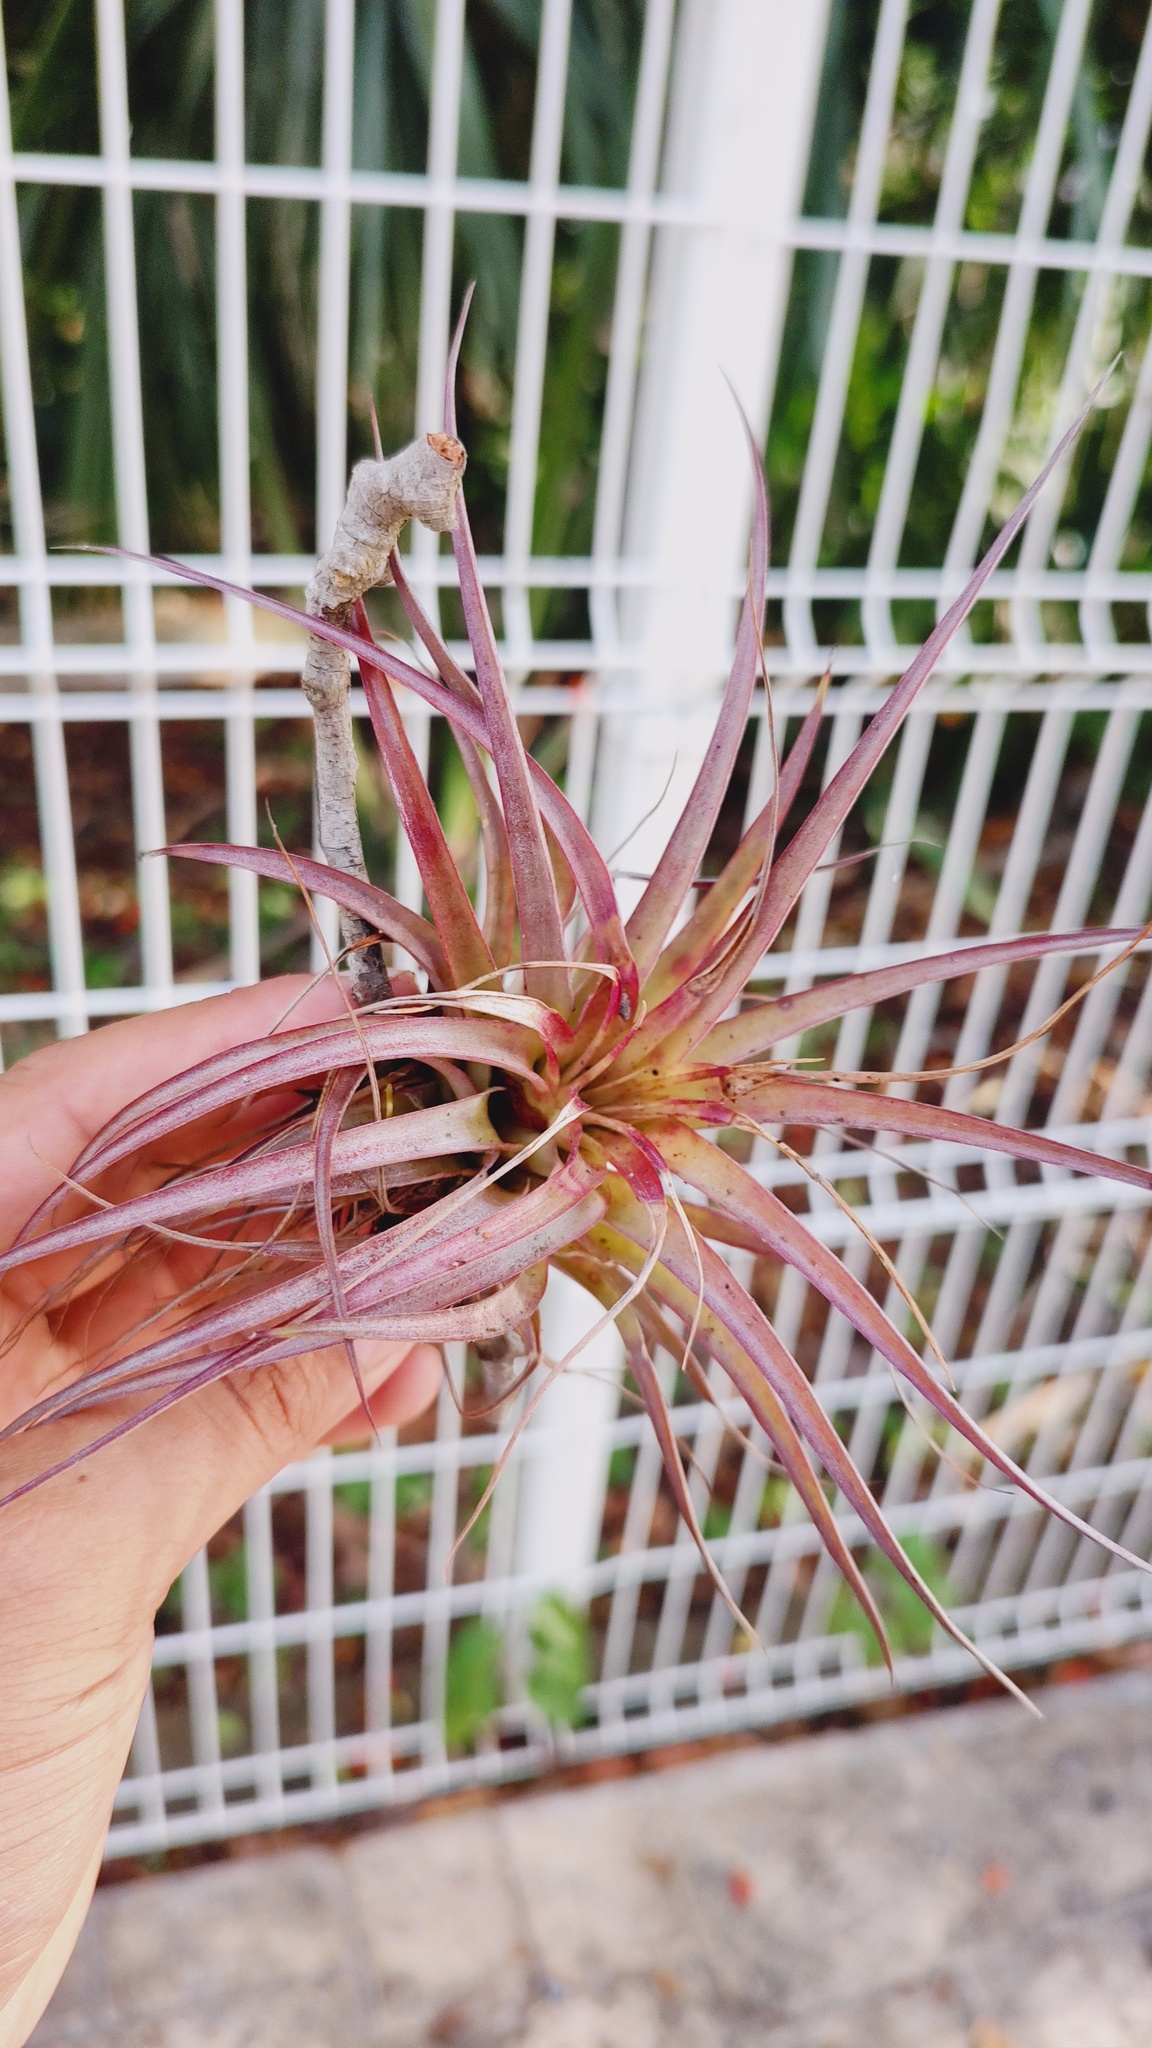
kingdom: Plantae
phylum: Tracheophyta
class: Liliopsida
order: Poales
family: Bromeliaceae
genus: Tillandsia
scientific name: Tillandsia brachycaulos
